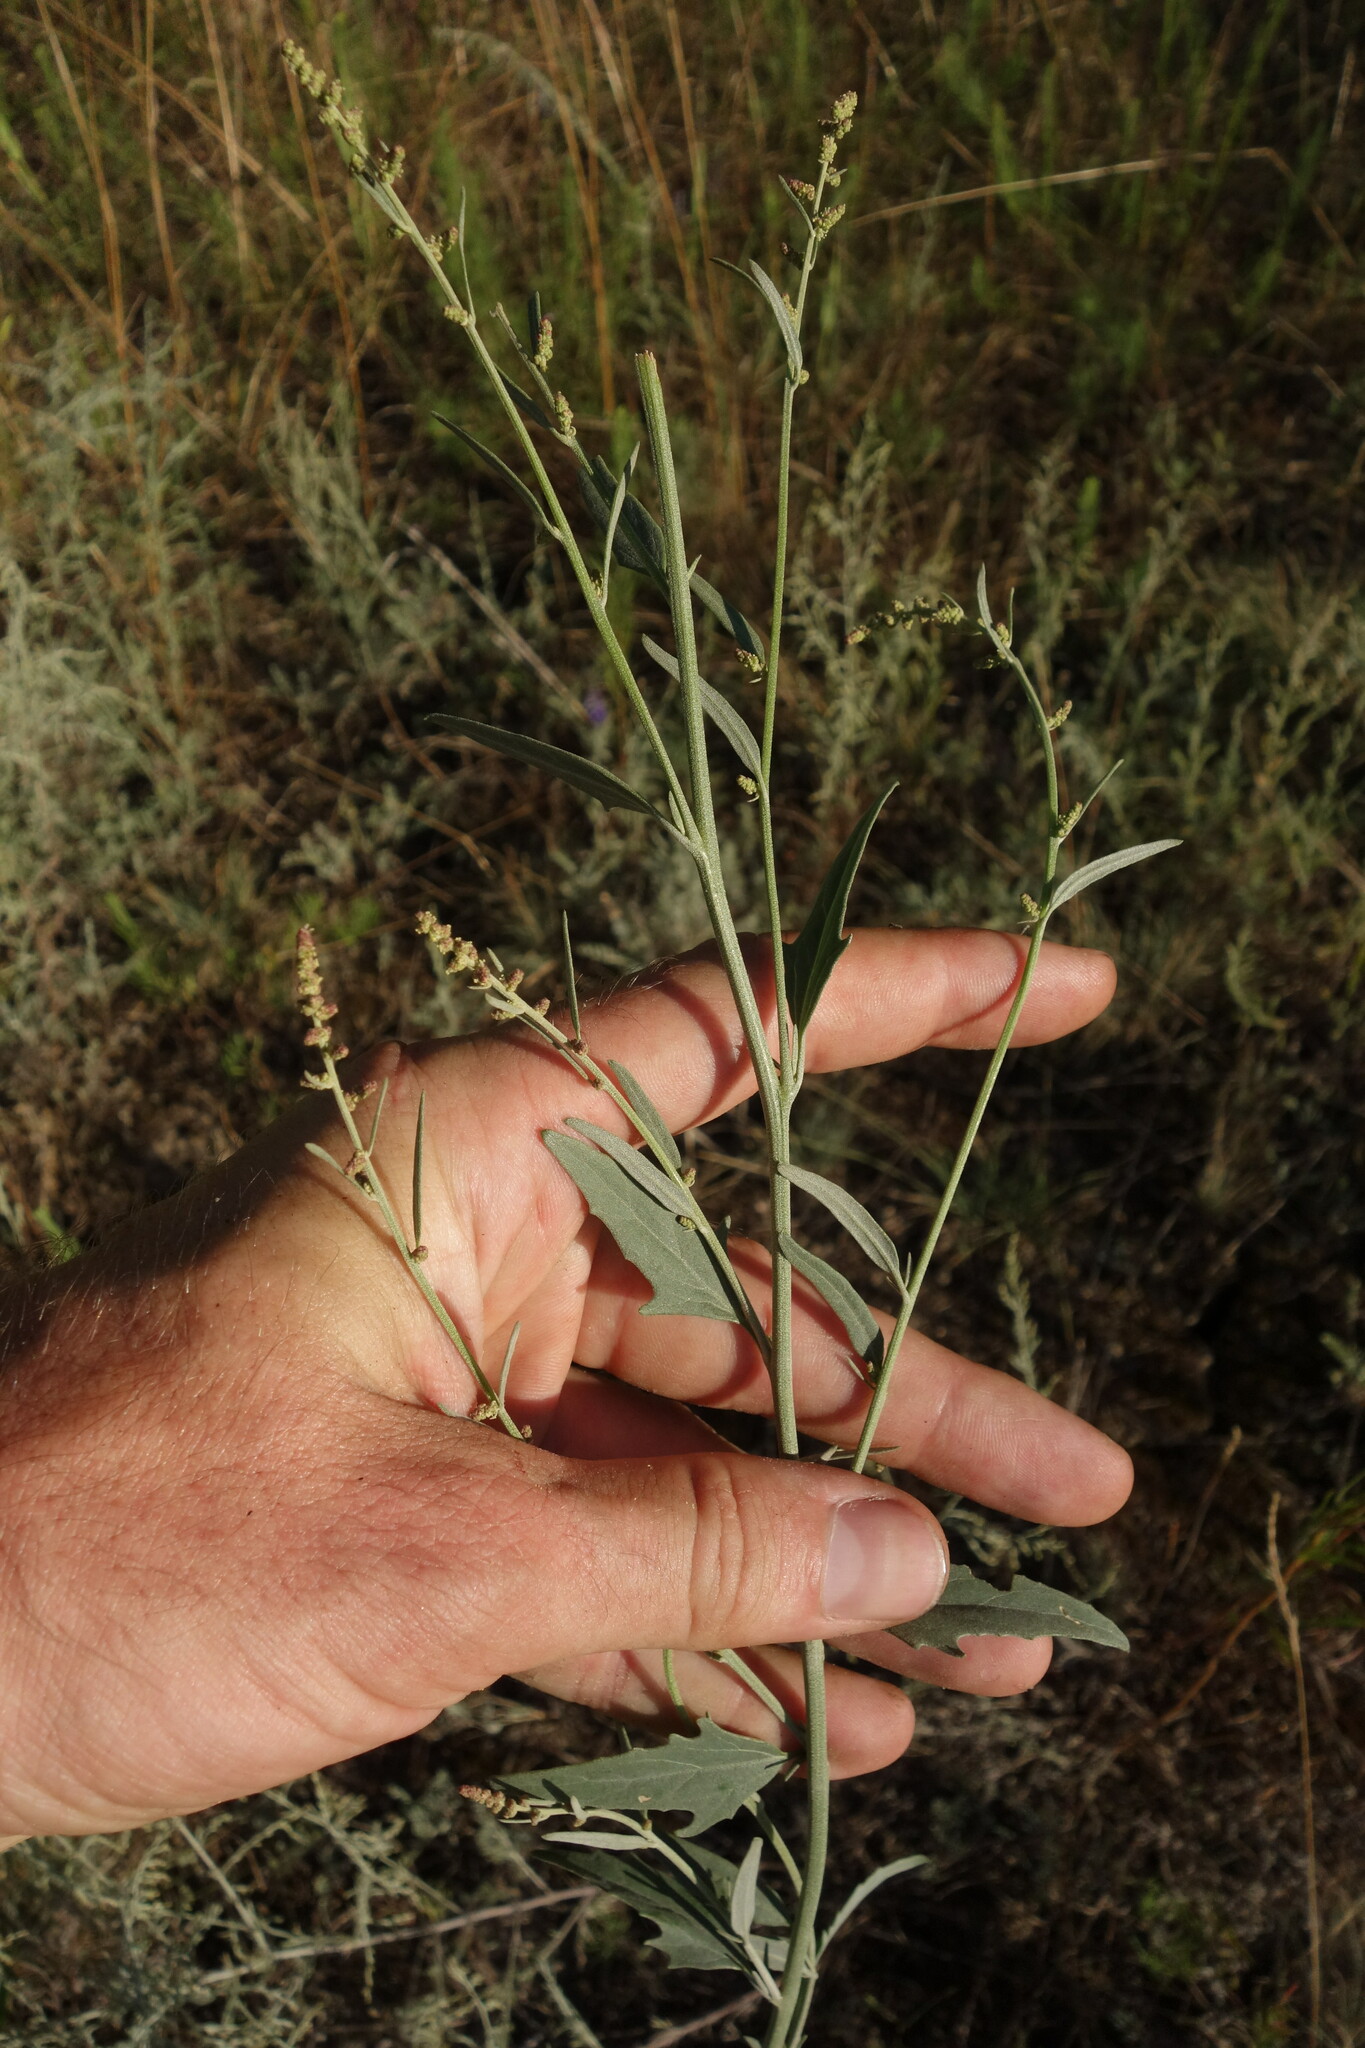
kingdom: Plantae
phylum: Tracheophyta
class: Magnoliopsida
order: Caryophyllales
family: Amaranthaceae
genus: Atriplex
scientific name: Atriplex oblongifolia
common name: Oblongleaf orache
